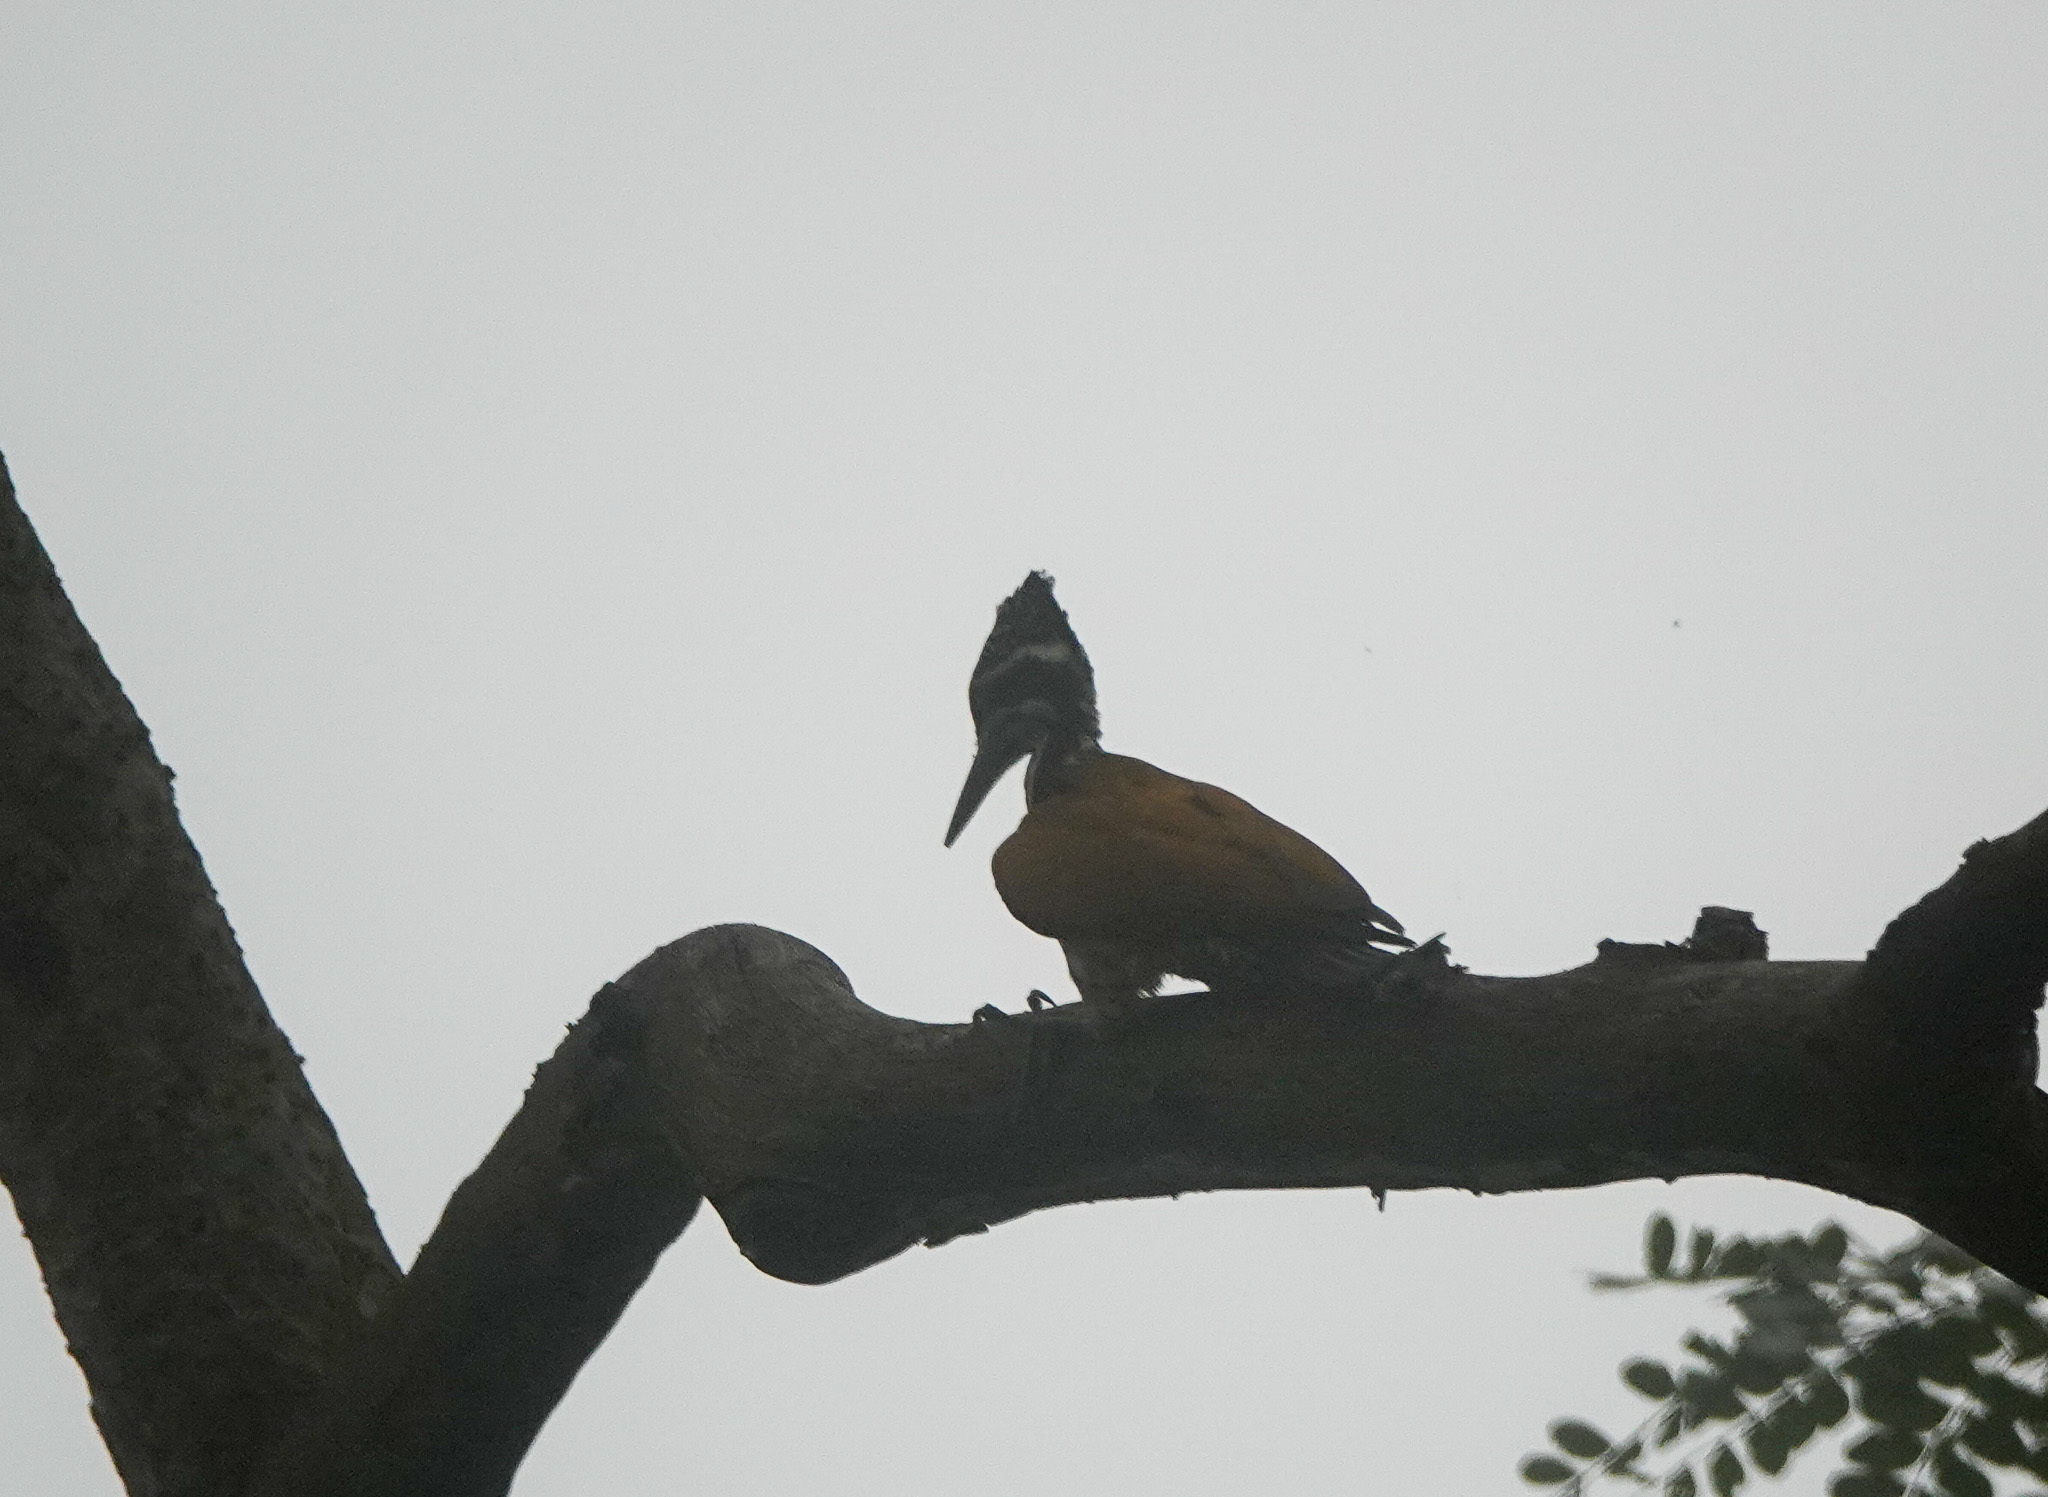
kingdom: Animalia
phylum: Chordata
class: Aves
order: Piciformes
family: Picidae
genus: Chrysocolaptes
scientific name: Chrysocolaptes guttacristatus
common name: Greater flameback
